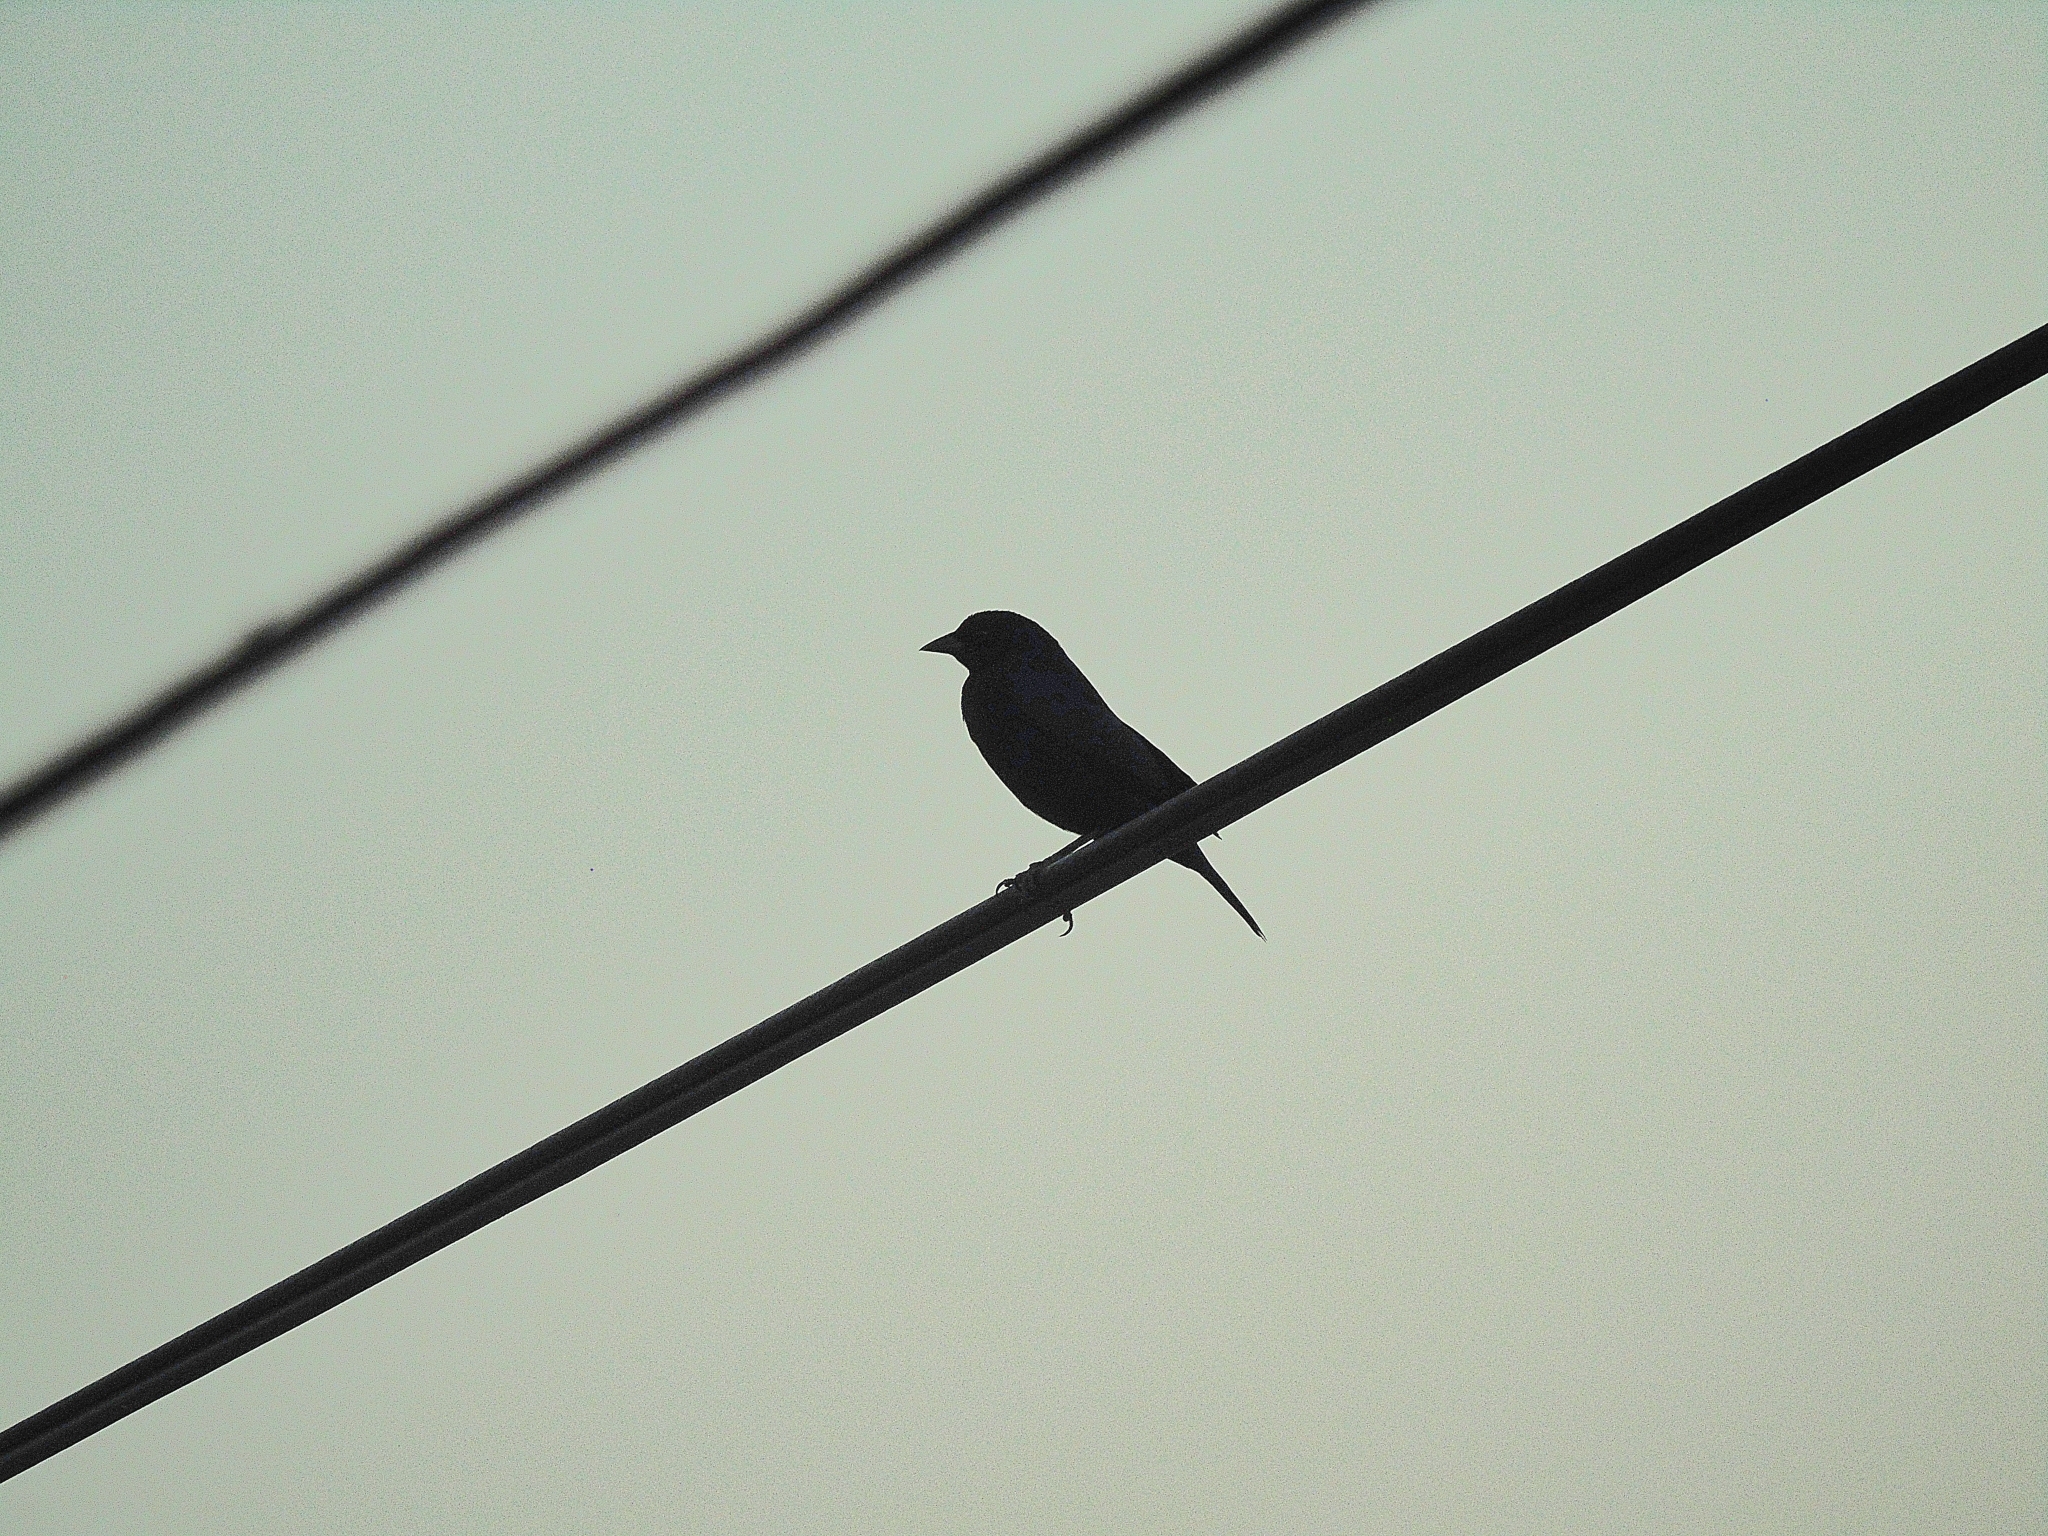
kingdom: Animalia
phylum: Chordata
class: Aves
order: Passeriformes
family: Icteridae
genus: Molothrus
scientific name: Molothrus bonariensis
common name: Shiny cowbird
